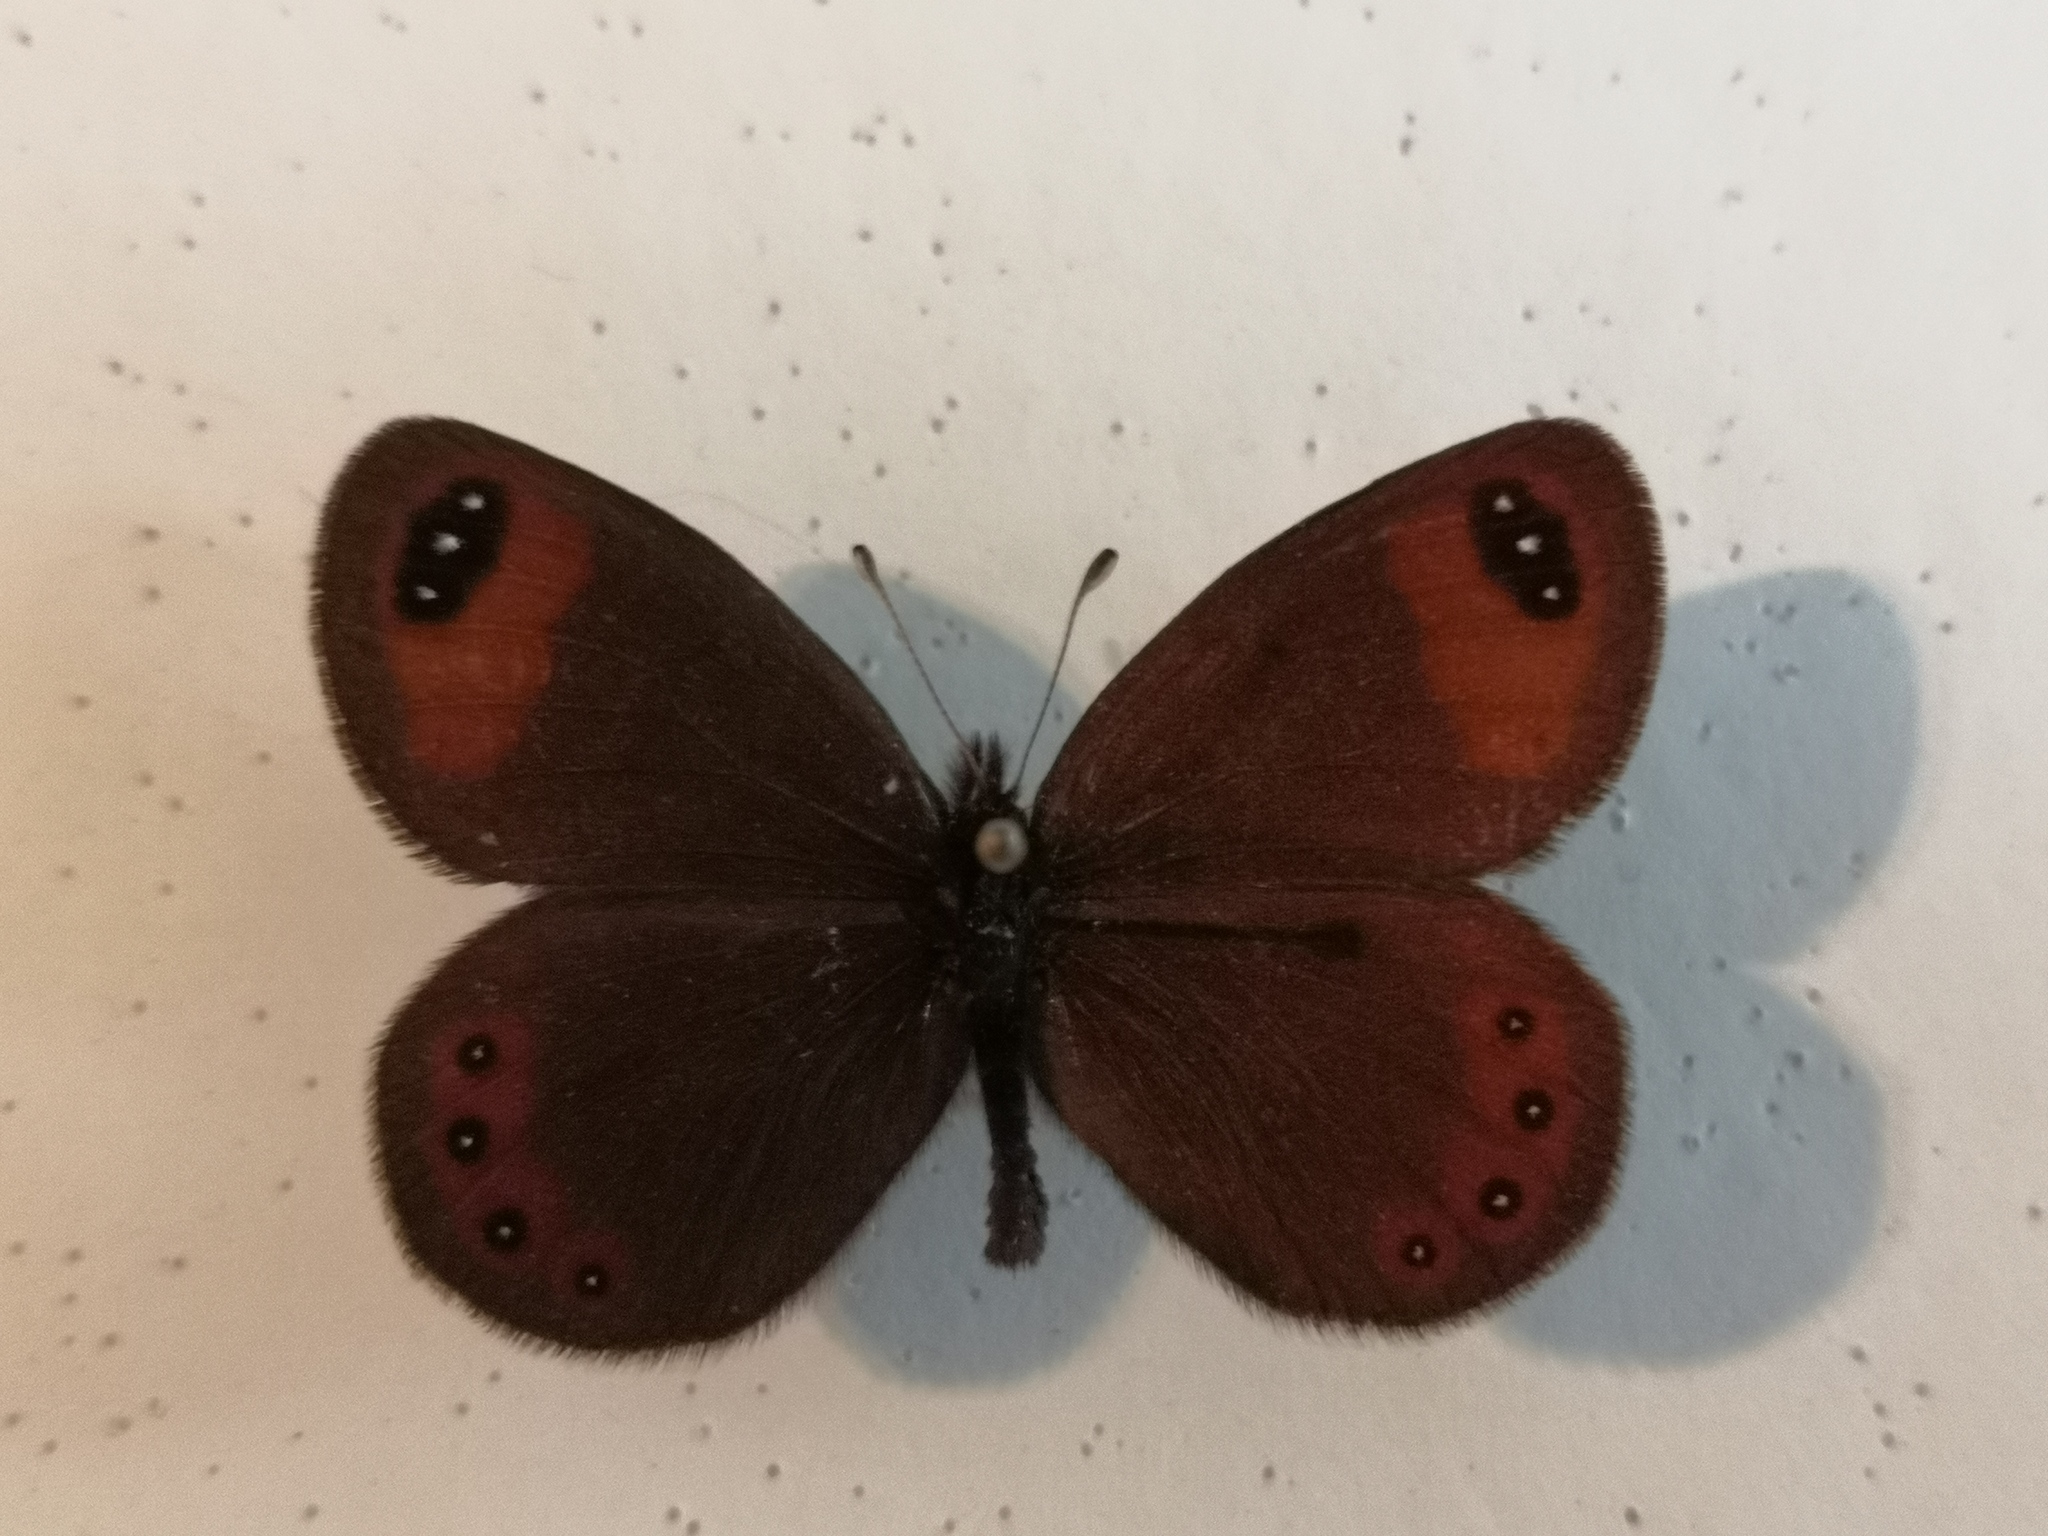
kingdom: Animalia
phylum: Arthropoda
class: Insecta
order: Lepidoptera
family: Nymphalidae
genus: Erebia
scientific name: Erebia hewitsonii
